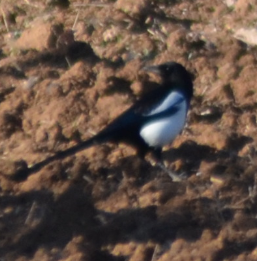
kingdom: Animalia
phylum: Chordata
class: Aves
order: Passeriformes
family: Corvidae
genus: Pica
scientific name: Pica pica
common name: Eurasian magpie
